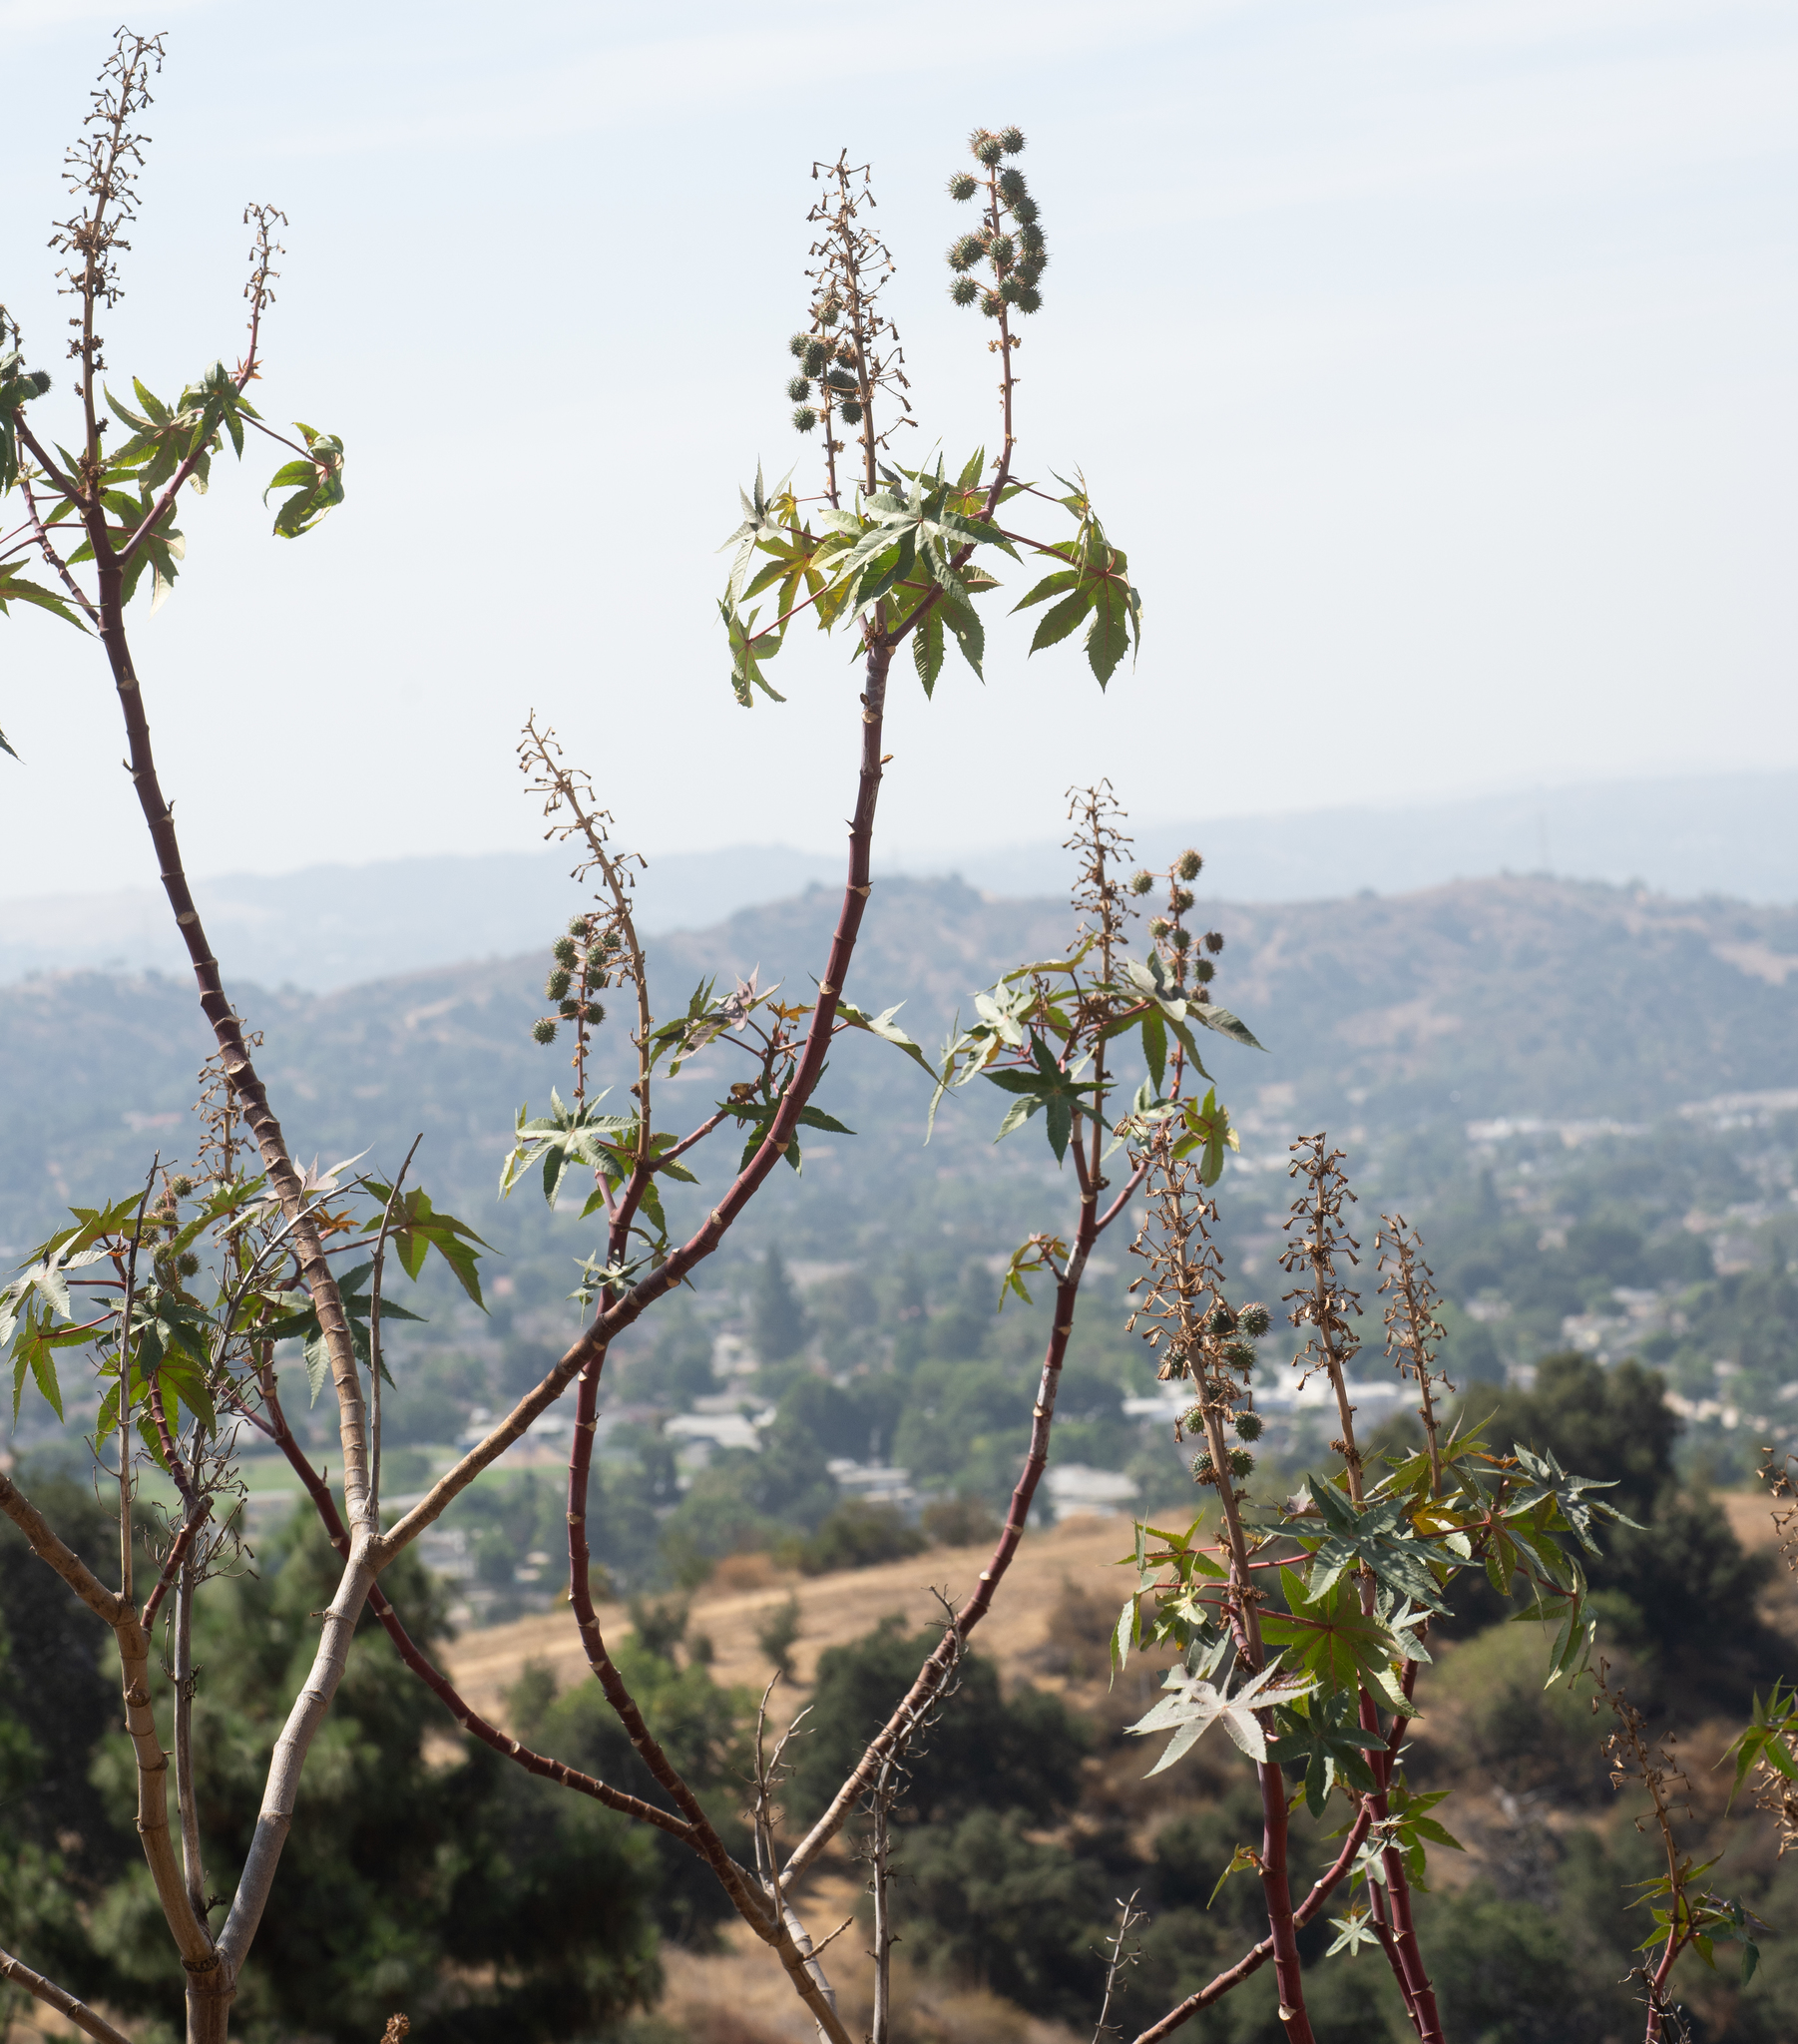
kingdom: Plantae
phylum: Tracheophyta
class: Magnoliopsida
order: Malpighiales
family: Euphorbiaceae
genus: Ricinus
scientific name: Ricinus communis
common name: Castor-oil-plant
